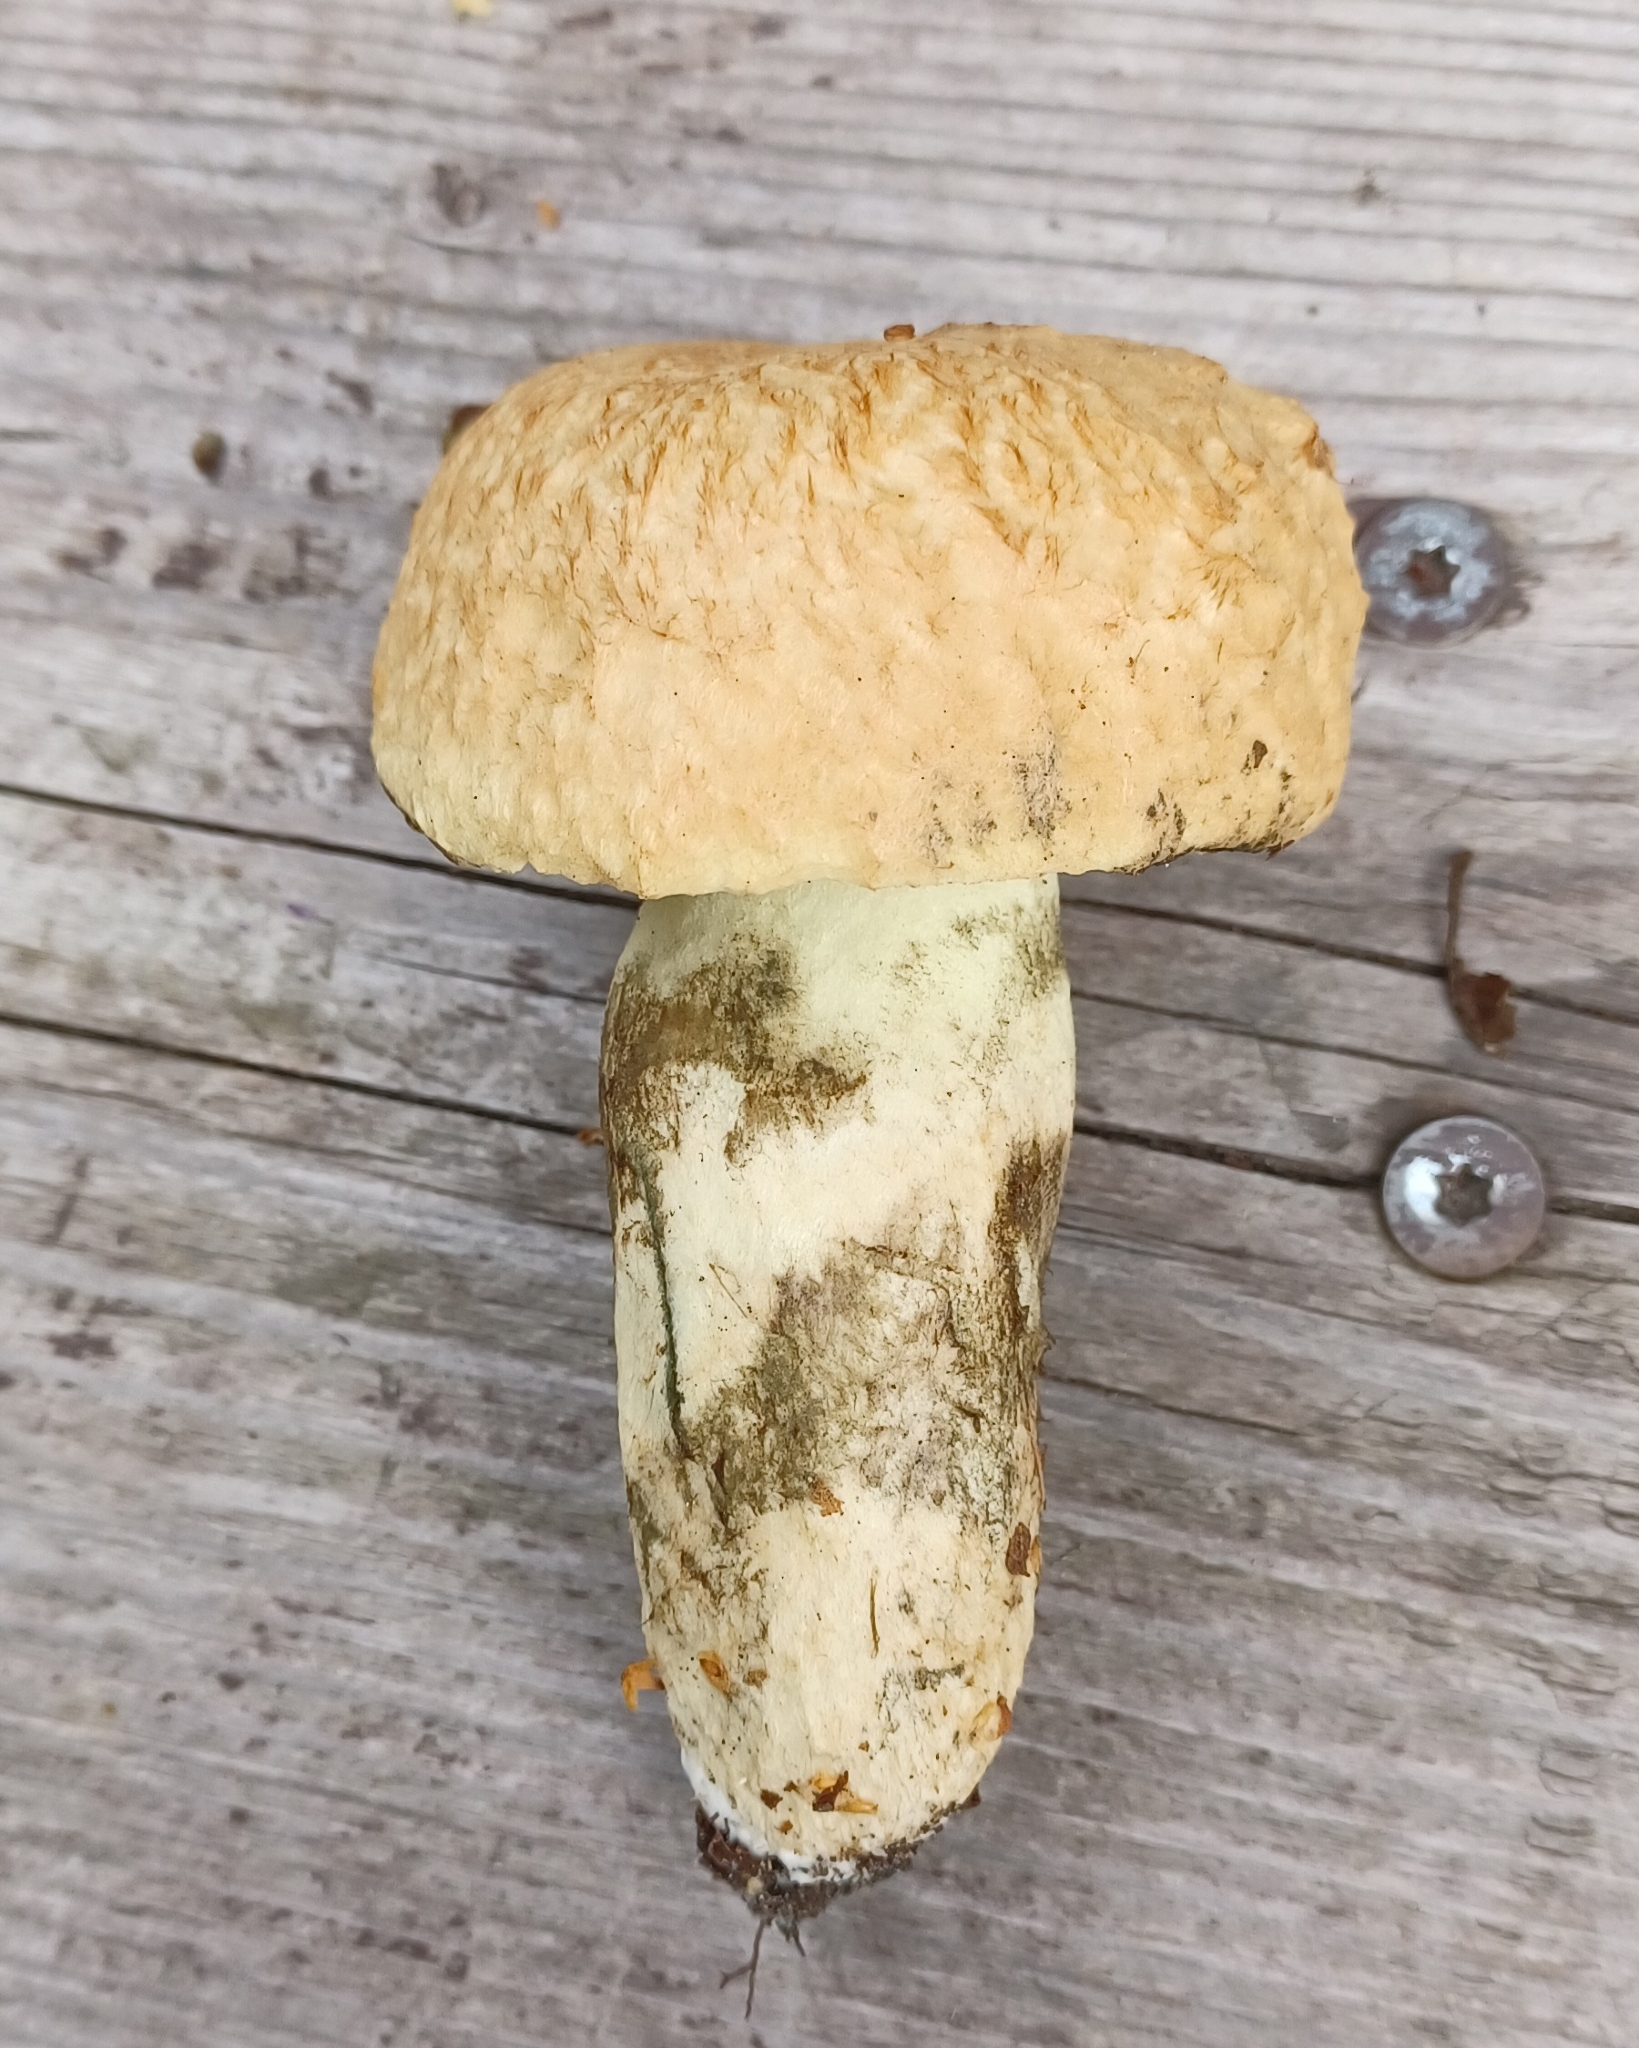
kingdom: Fungi
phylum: Basidiomycota
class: Agaricomycetes
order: Boletales
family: Gyroporaceae
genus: Gyroporus
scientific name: Gyroporus cyanescens
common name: Cornflower bolete
